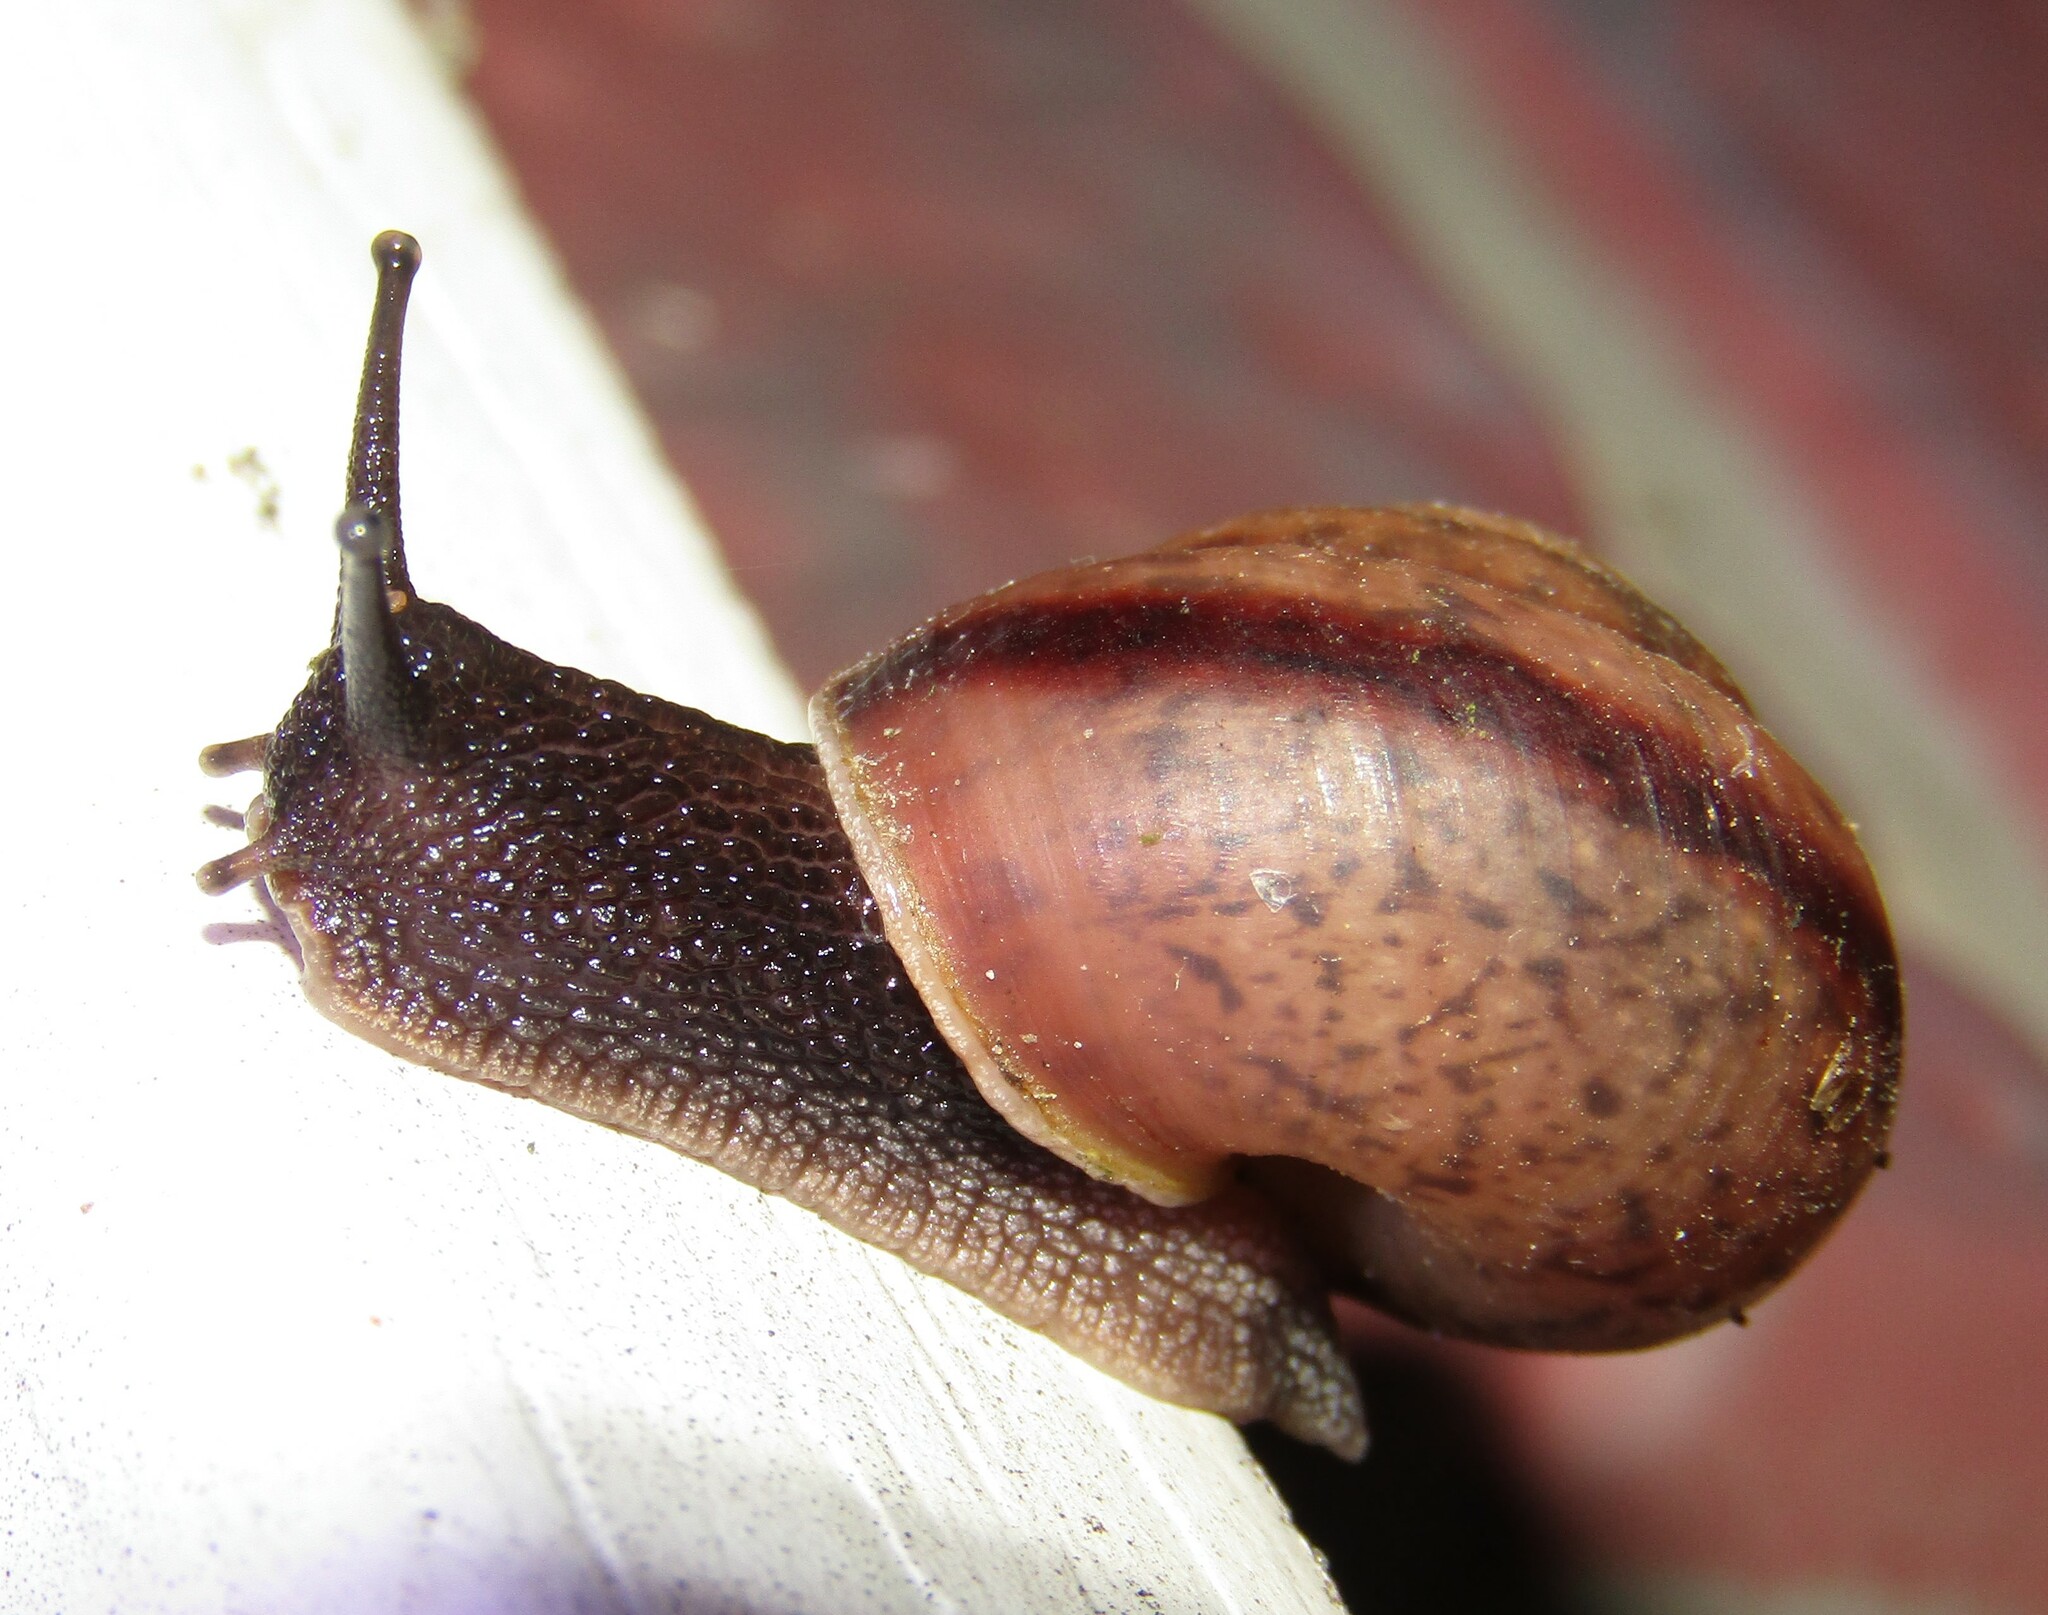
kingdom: Animalia
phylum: Mollusca
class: Gastropoda
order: Stylommatophora
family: Camaenidae
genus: Fruticicola
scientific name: Fruticicola fruticum
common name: Bush snail
